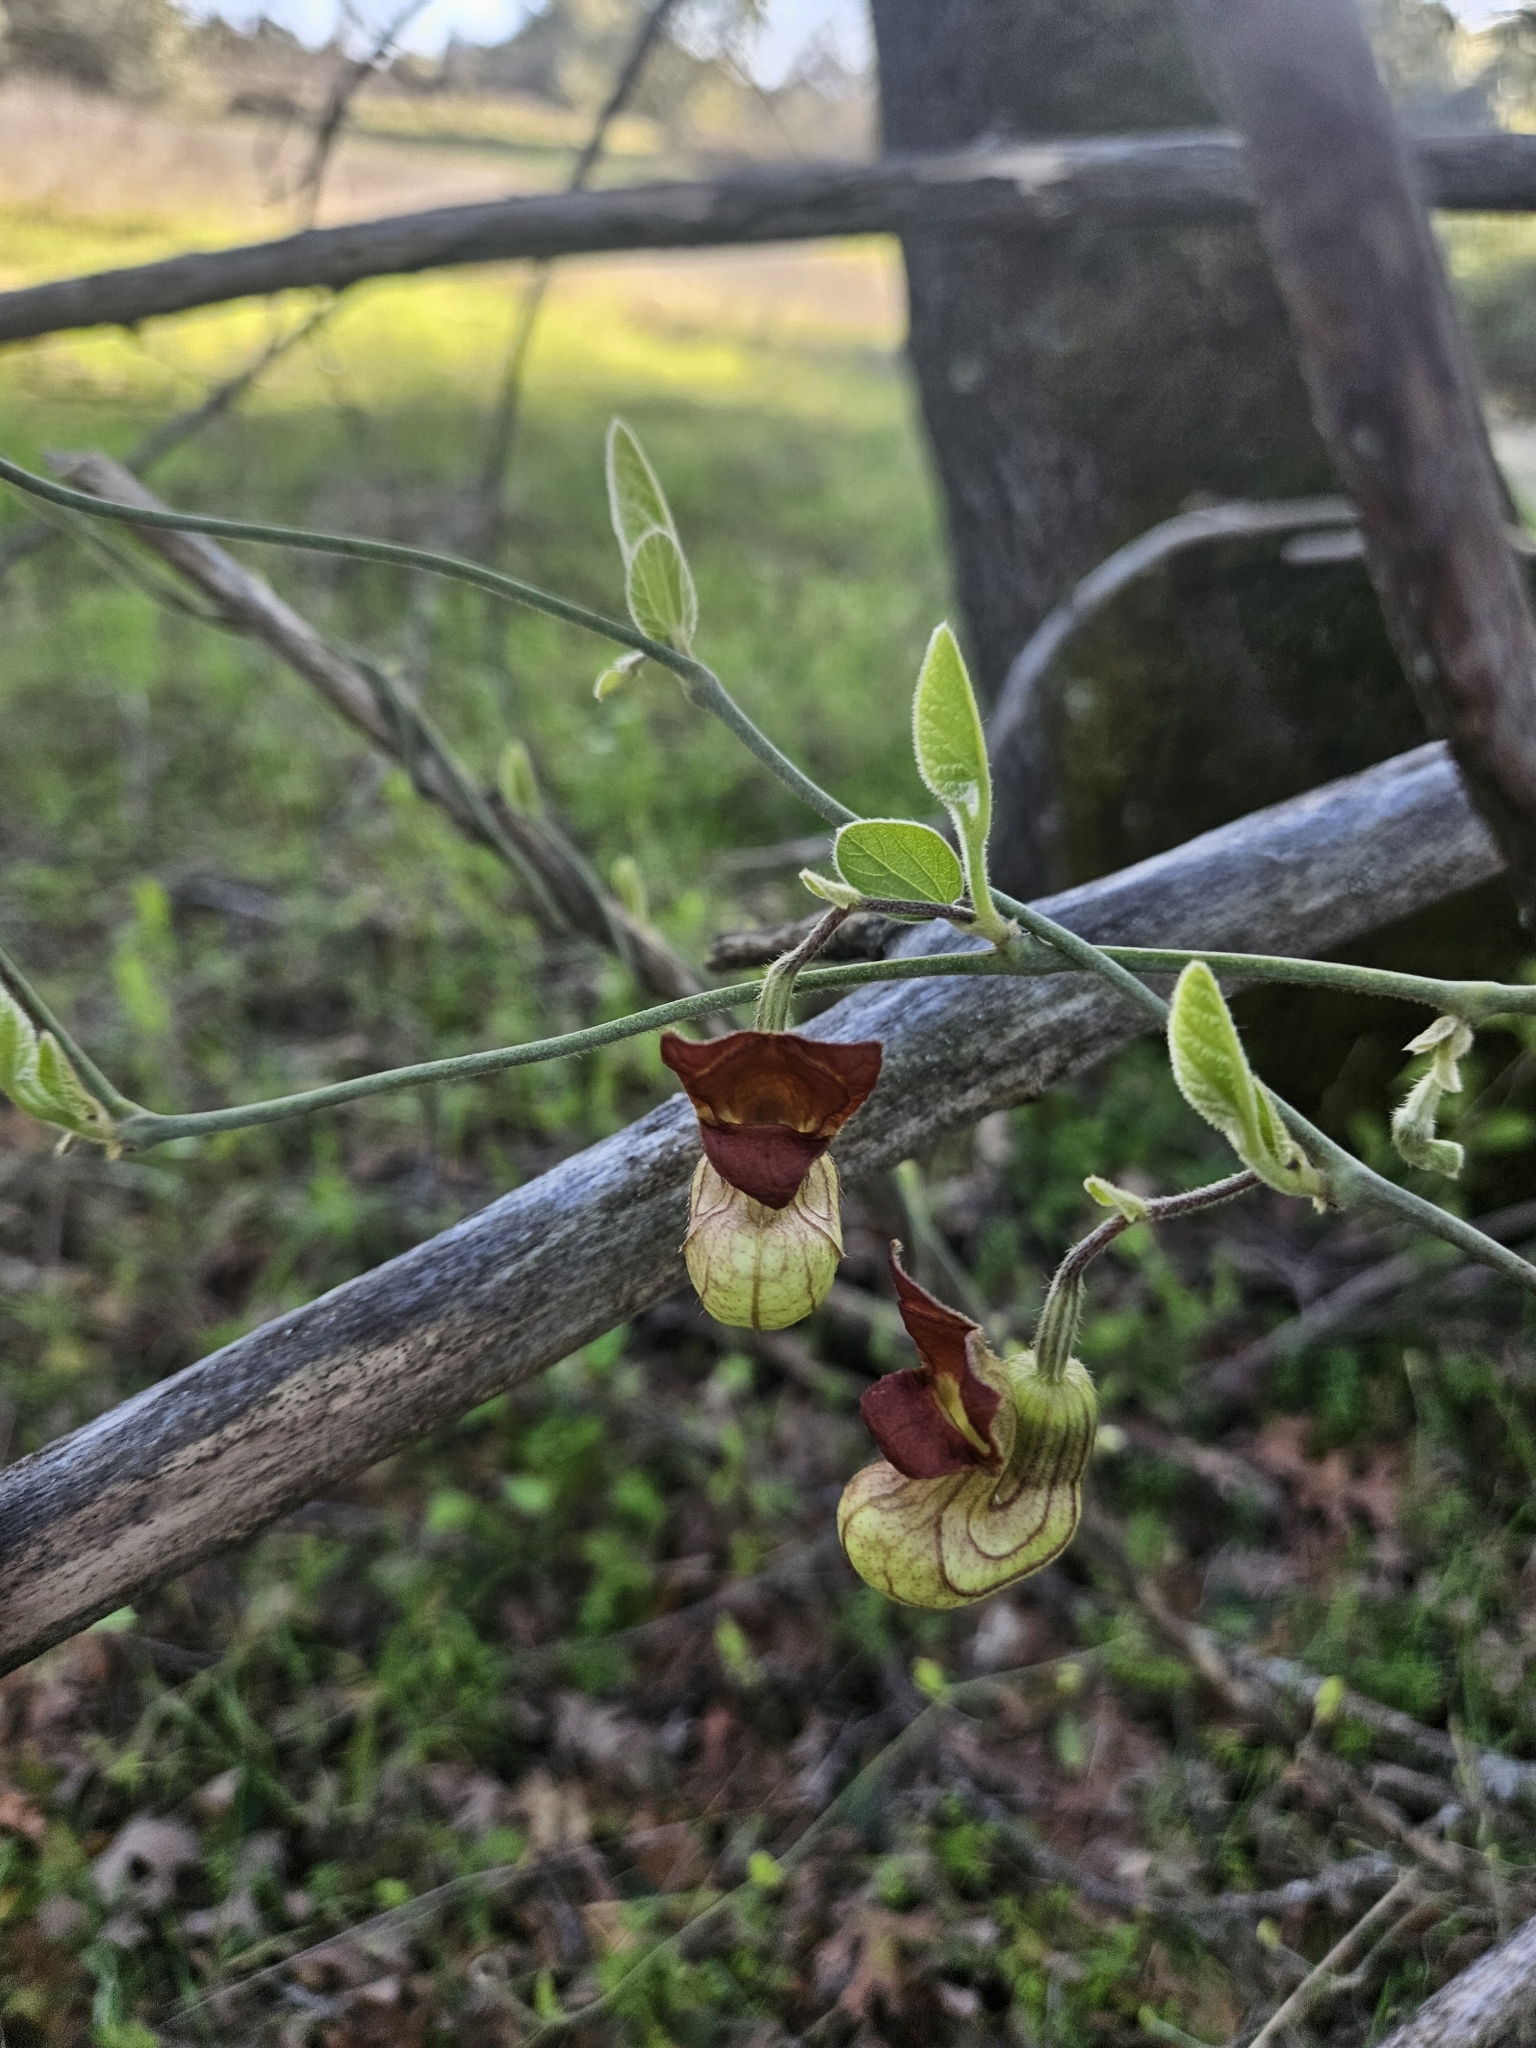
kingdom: Plantae
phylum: Tracheophyta
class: Magnoliopsida
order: Piperales
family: Aristolochiaceae
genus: Isotrema
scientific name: Isotrema californicum
